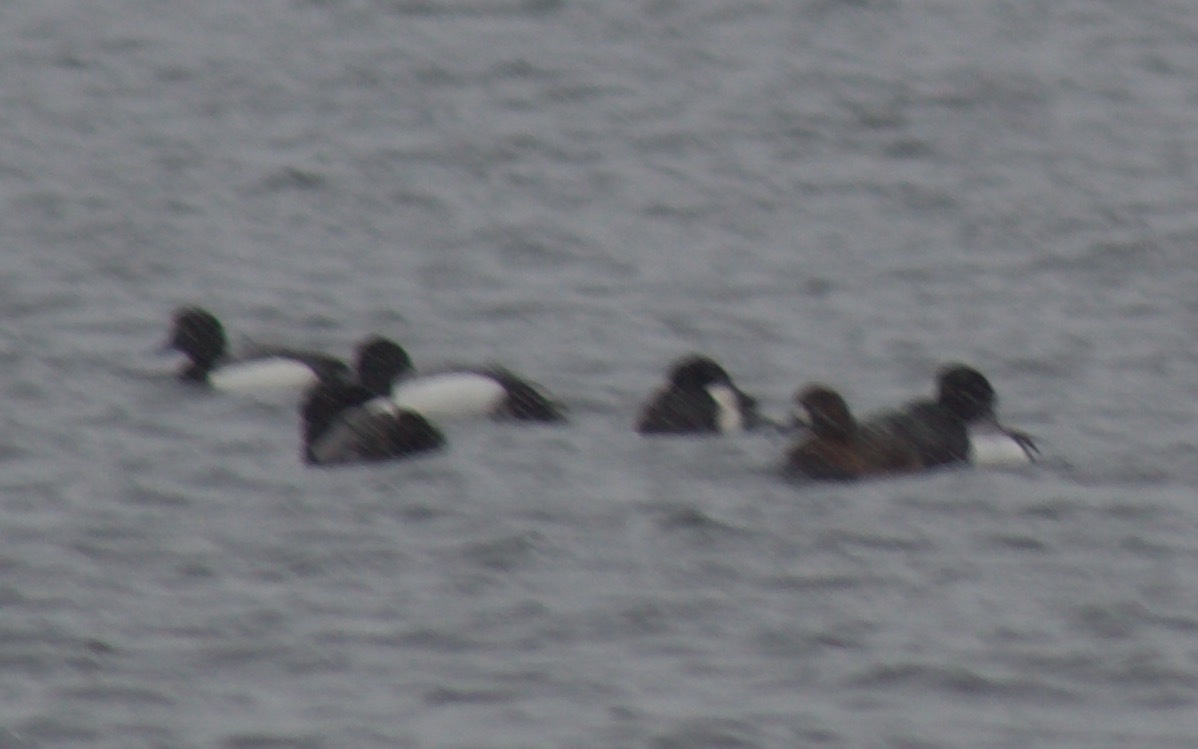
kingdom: Animalia
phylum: Chordata
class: Aves
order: Anseriformes
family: Anatidae
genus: Aythya
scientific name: Aythya marila
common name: Greater scaup
